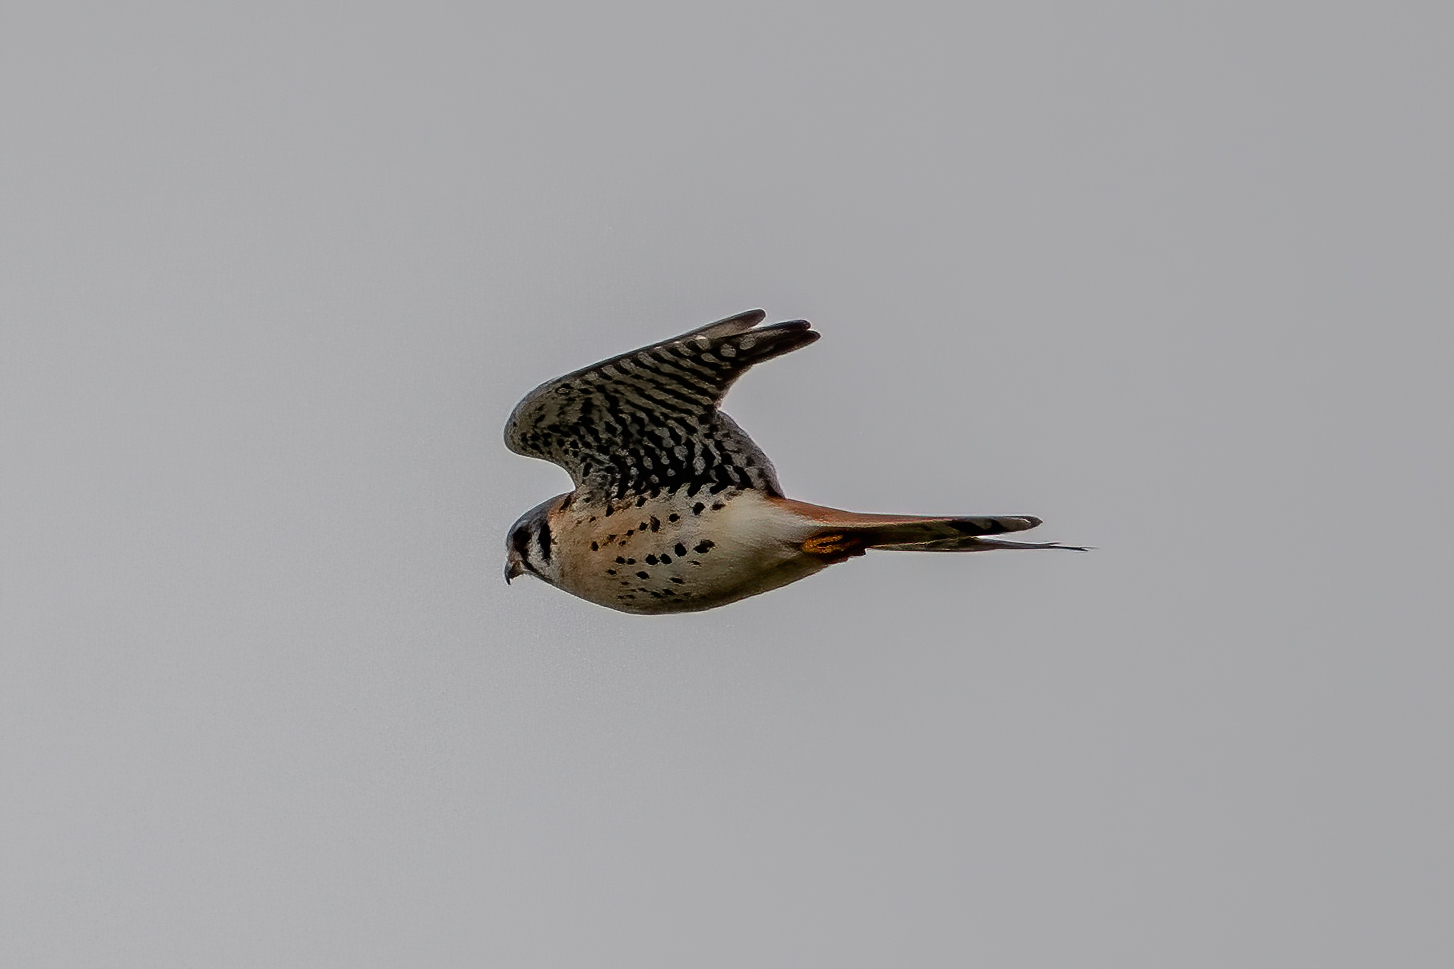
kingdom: Animalia
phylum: Chordata
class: Aves
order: Falconiformes
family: Falconidae
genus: Falco
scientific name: Falco sparverius
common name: American kestrel
